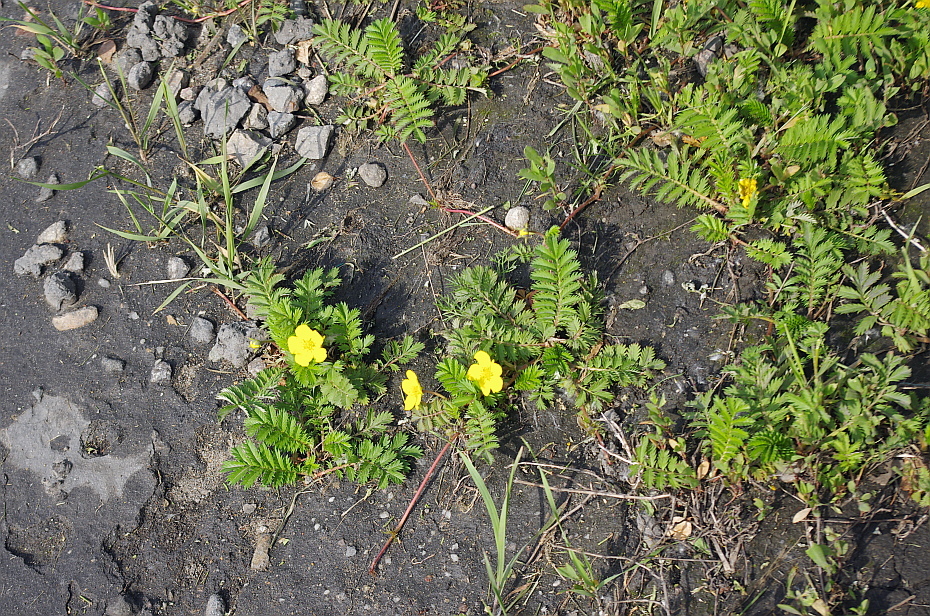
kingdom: Plantae
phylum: Tracheophyta
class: Magnoliopsida
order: Rosales
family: Rosaceae
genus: Argentina
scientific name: Argentina anserina
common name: Common silverweed
